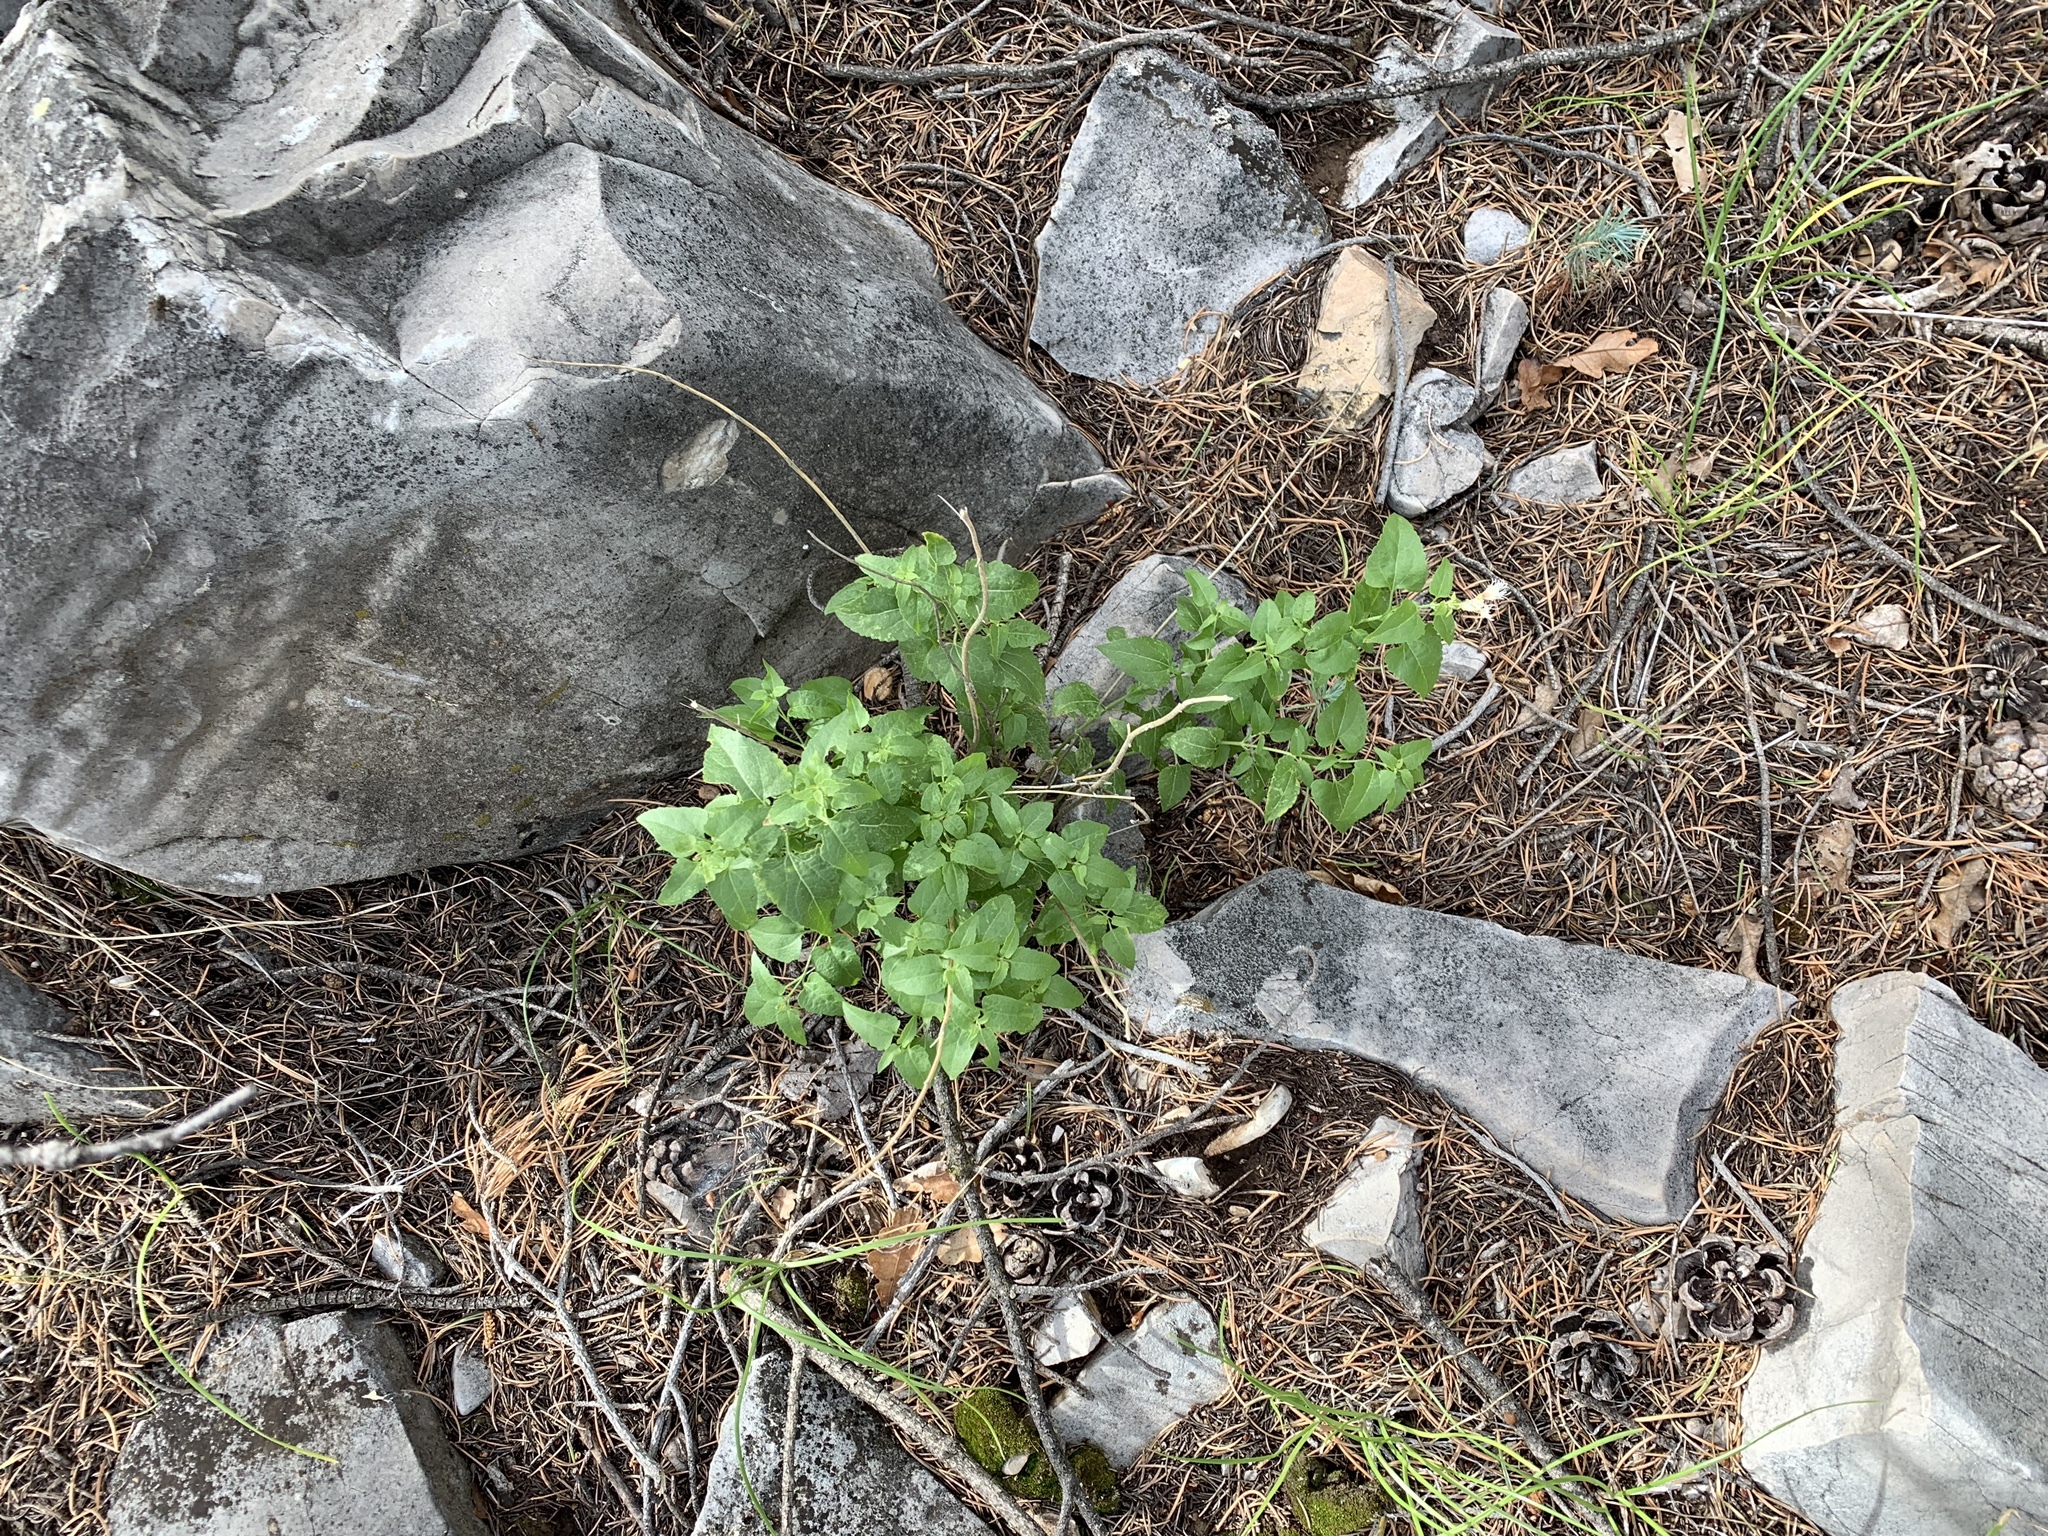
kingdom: Plantae
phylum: Tracheophyta
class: Magnoliopsida
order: Asterales
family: Asteraceae
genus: Ageratina
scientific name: Ageratina herbacea
